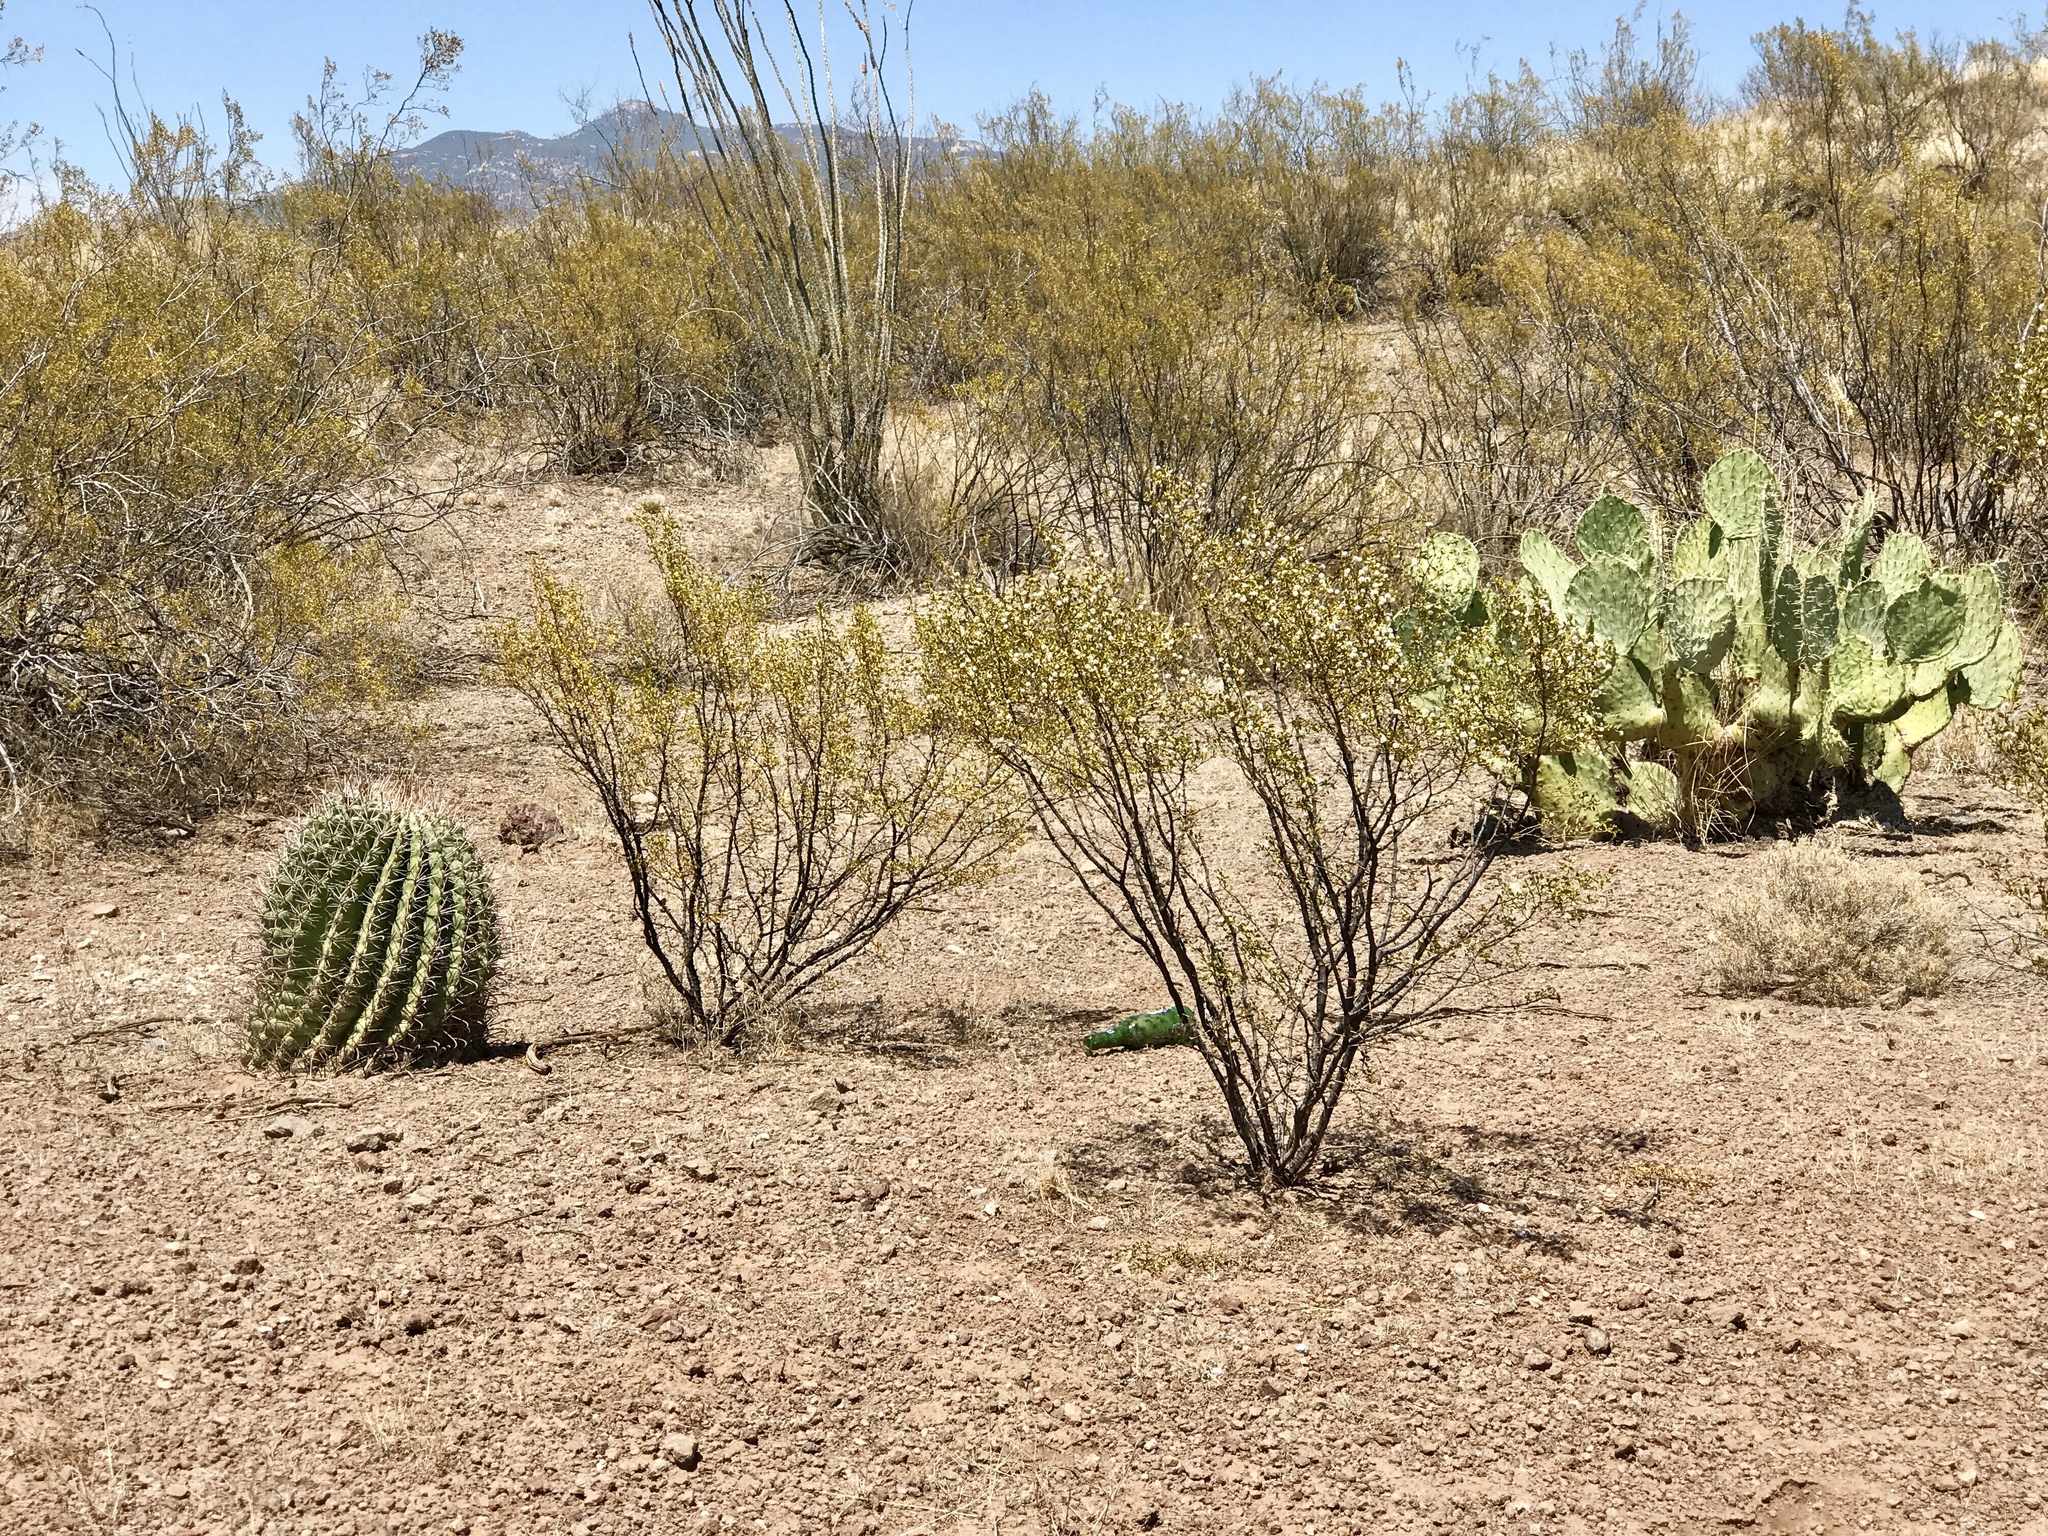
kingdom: Plantae
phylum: Tracheophyta
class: Magnoliopsida
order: Zygophyllales
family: Zygophyllaceae
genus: Larrea
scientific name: Larrea tridentata
